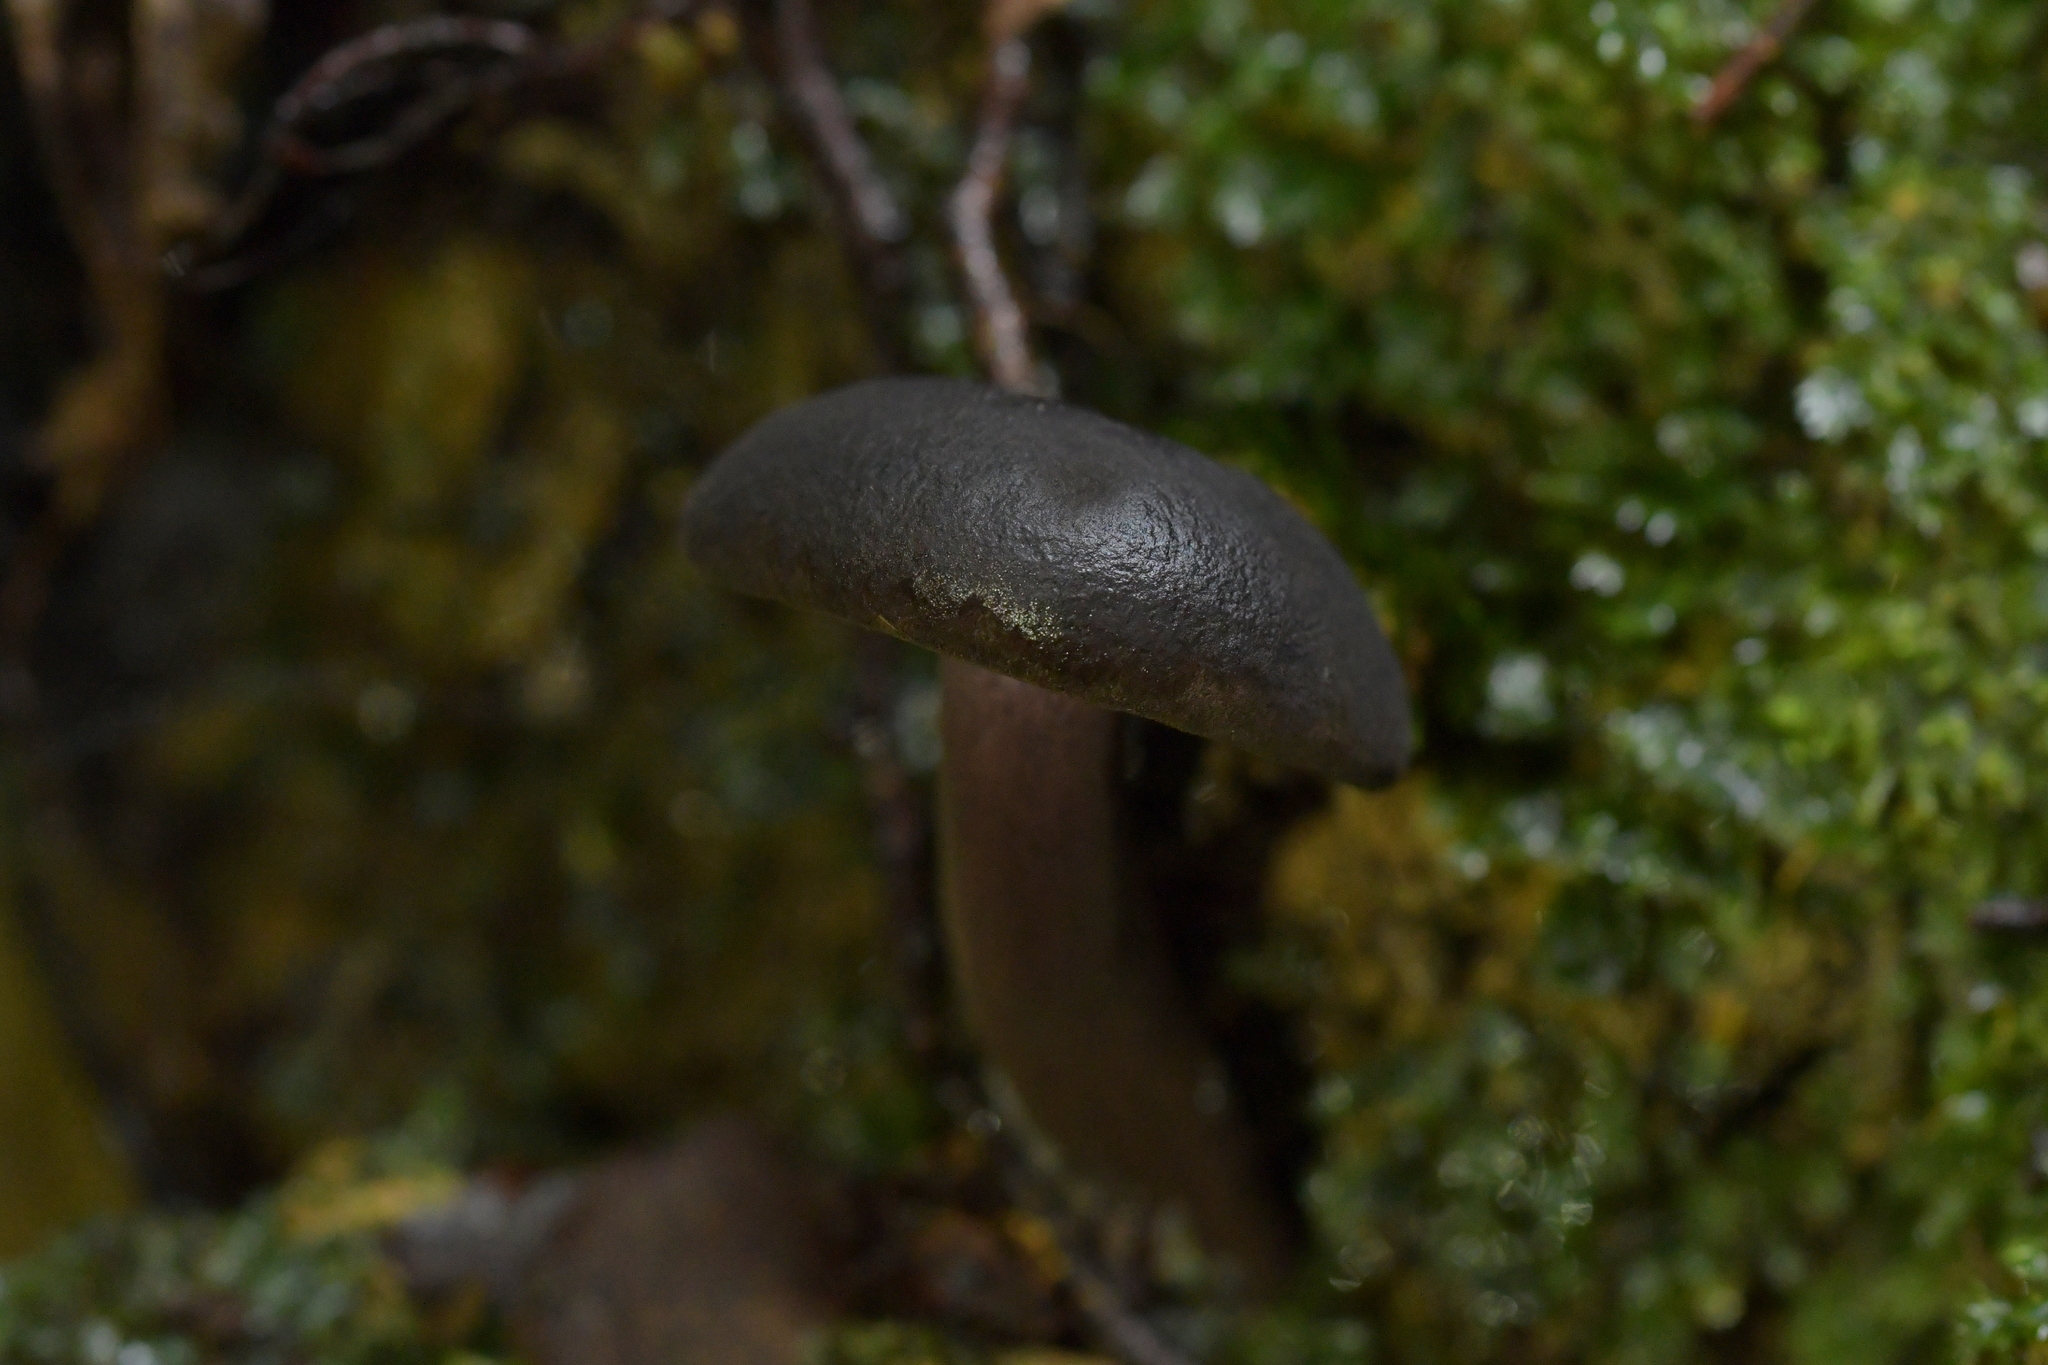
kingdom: Fungi
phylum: Basidiomycota
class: Agaricomycetes
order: Boletales
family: Boletaceae
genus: Porphyrellus
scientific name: Porphyrellus formosus
